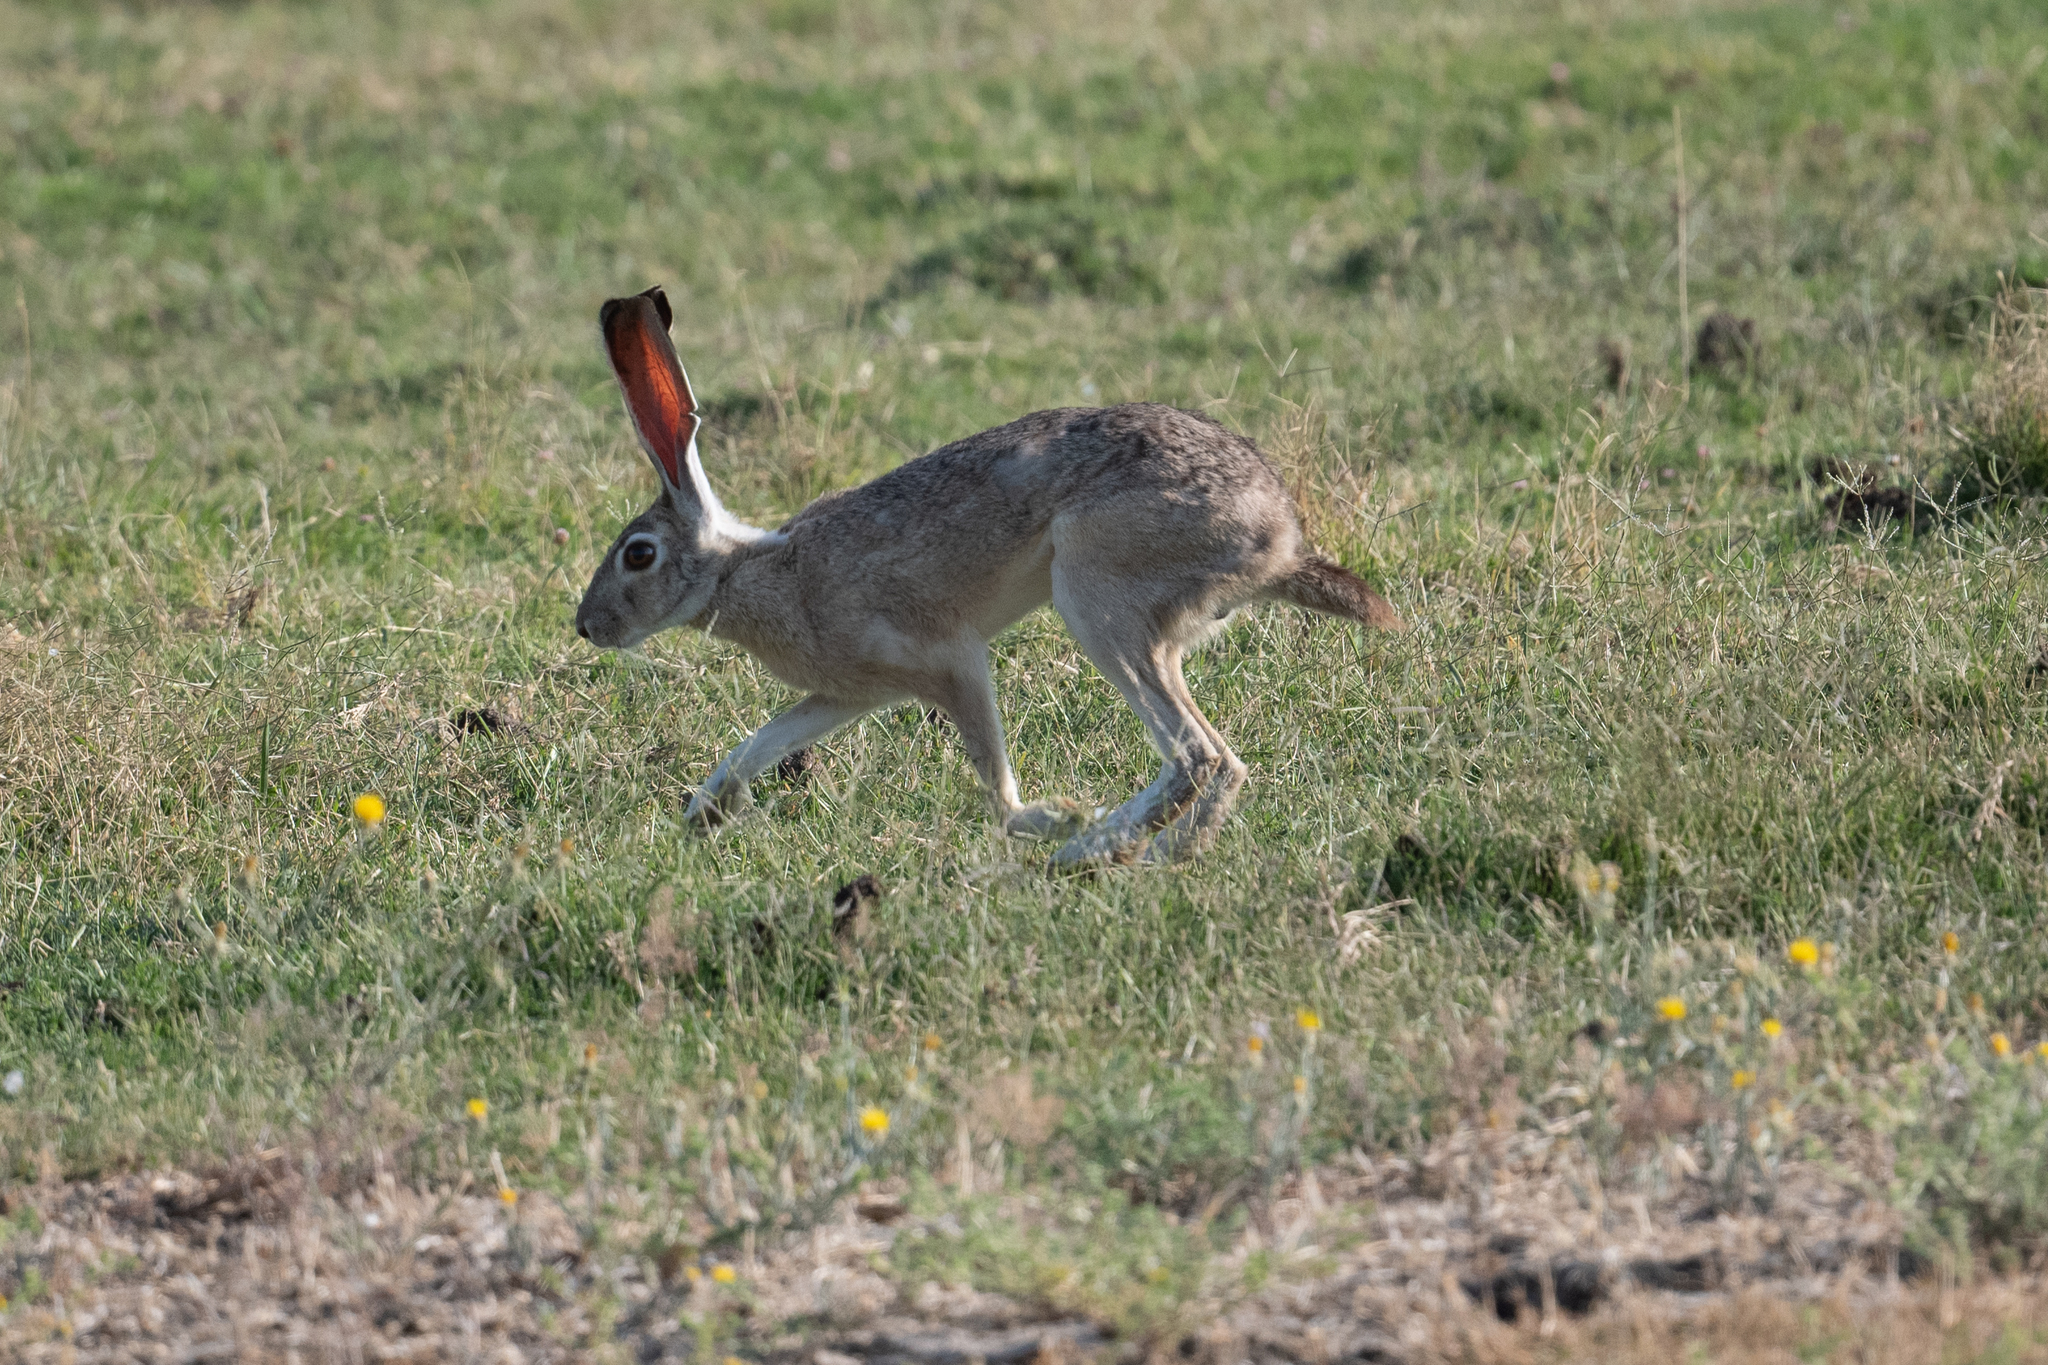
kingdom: Animalia
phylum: Chordata
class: Mammalia
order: Lagomorpha
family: Leporidae
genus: Lepus
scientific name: Lepus californicus
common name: Black-tailed jackrabbit
